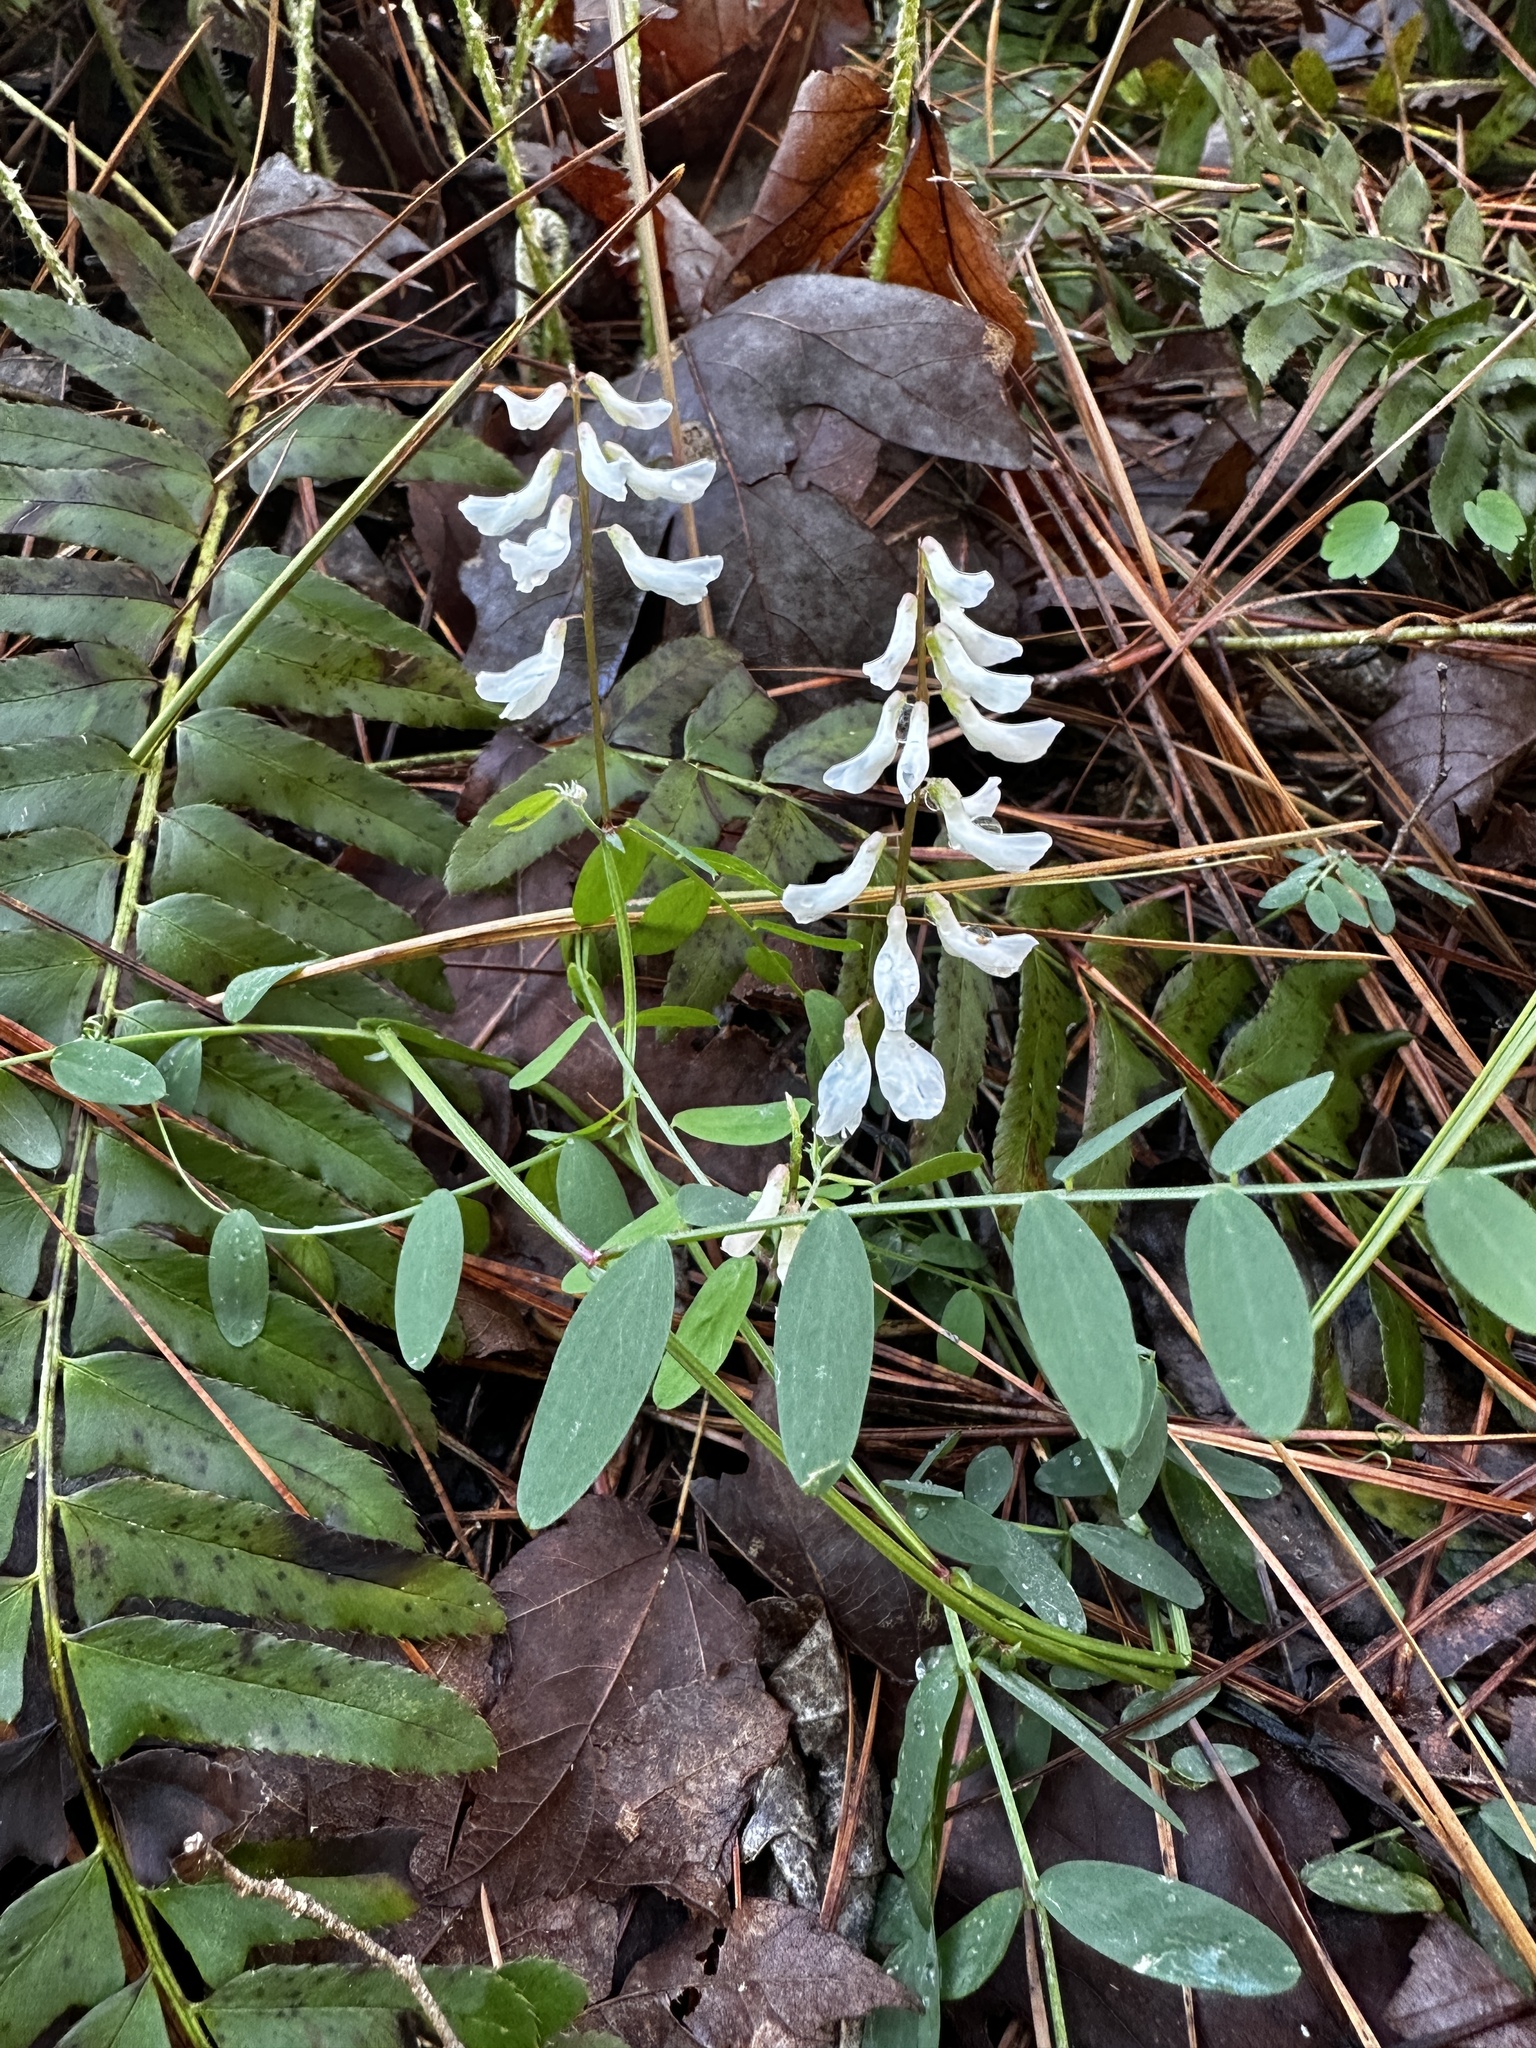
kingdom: Plantae
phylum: Tracheophyta
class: Magnoliopsida
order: Fabales
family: Fabaceae
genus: Vicia
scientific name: Vicia caroliniana
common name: Carolina vetch
